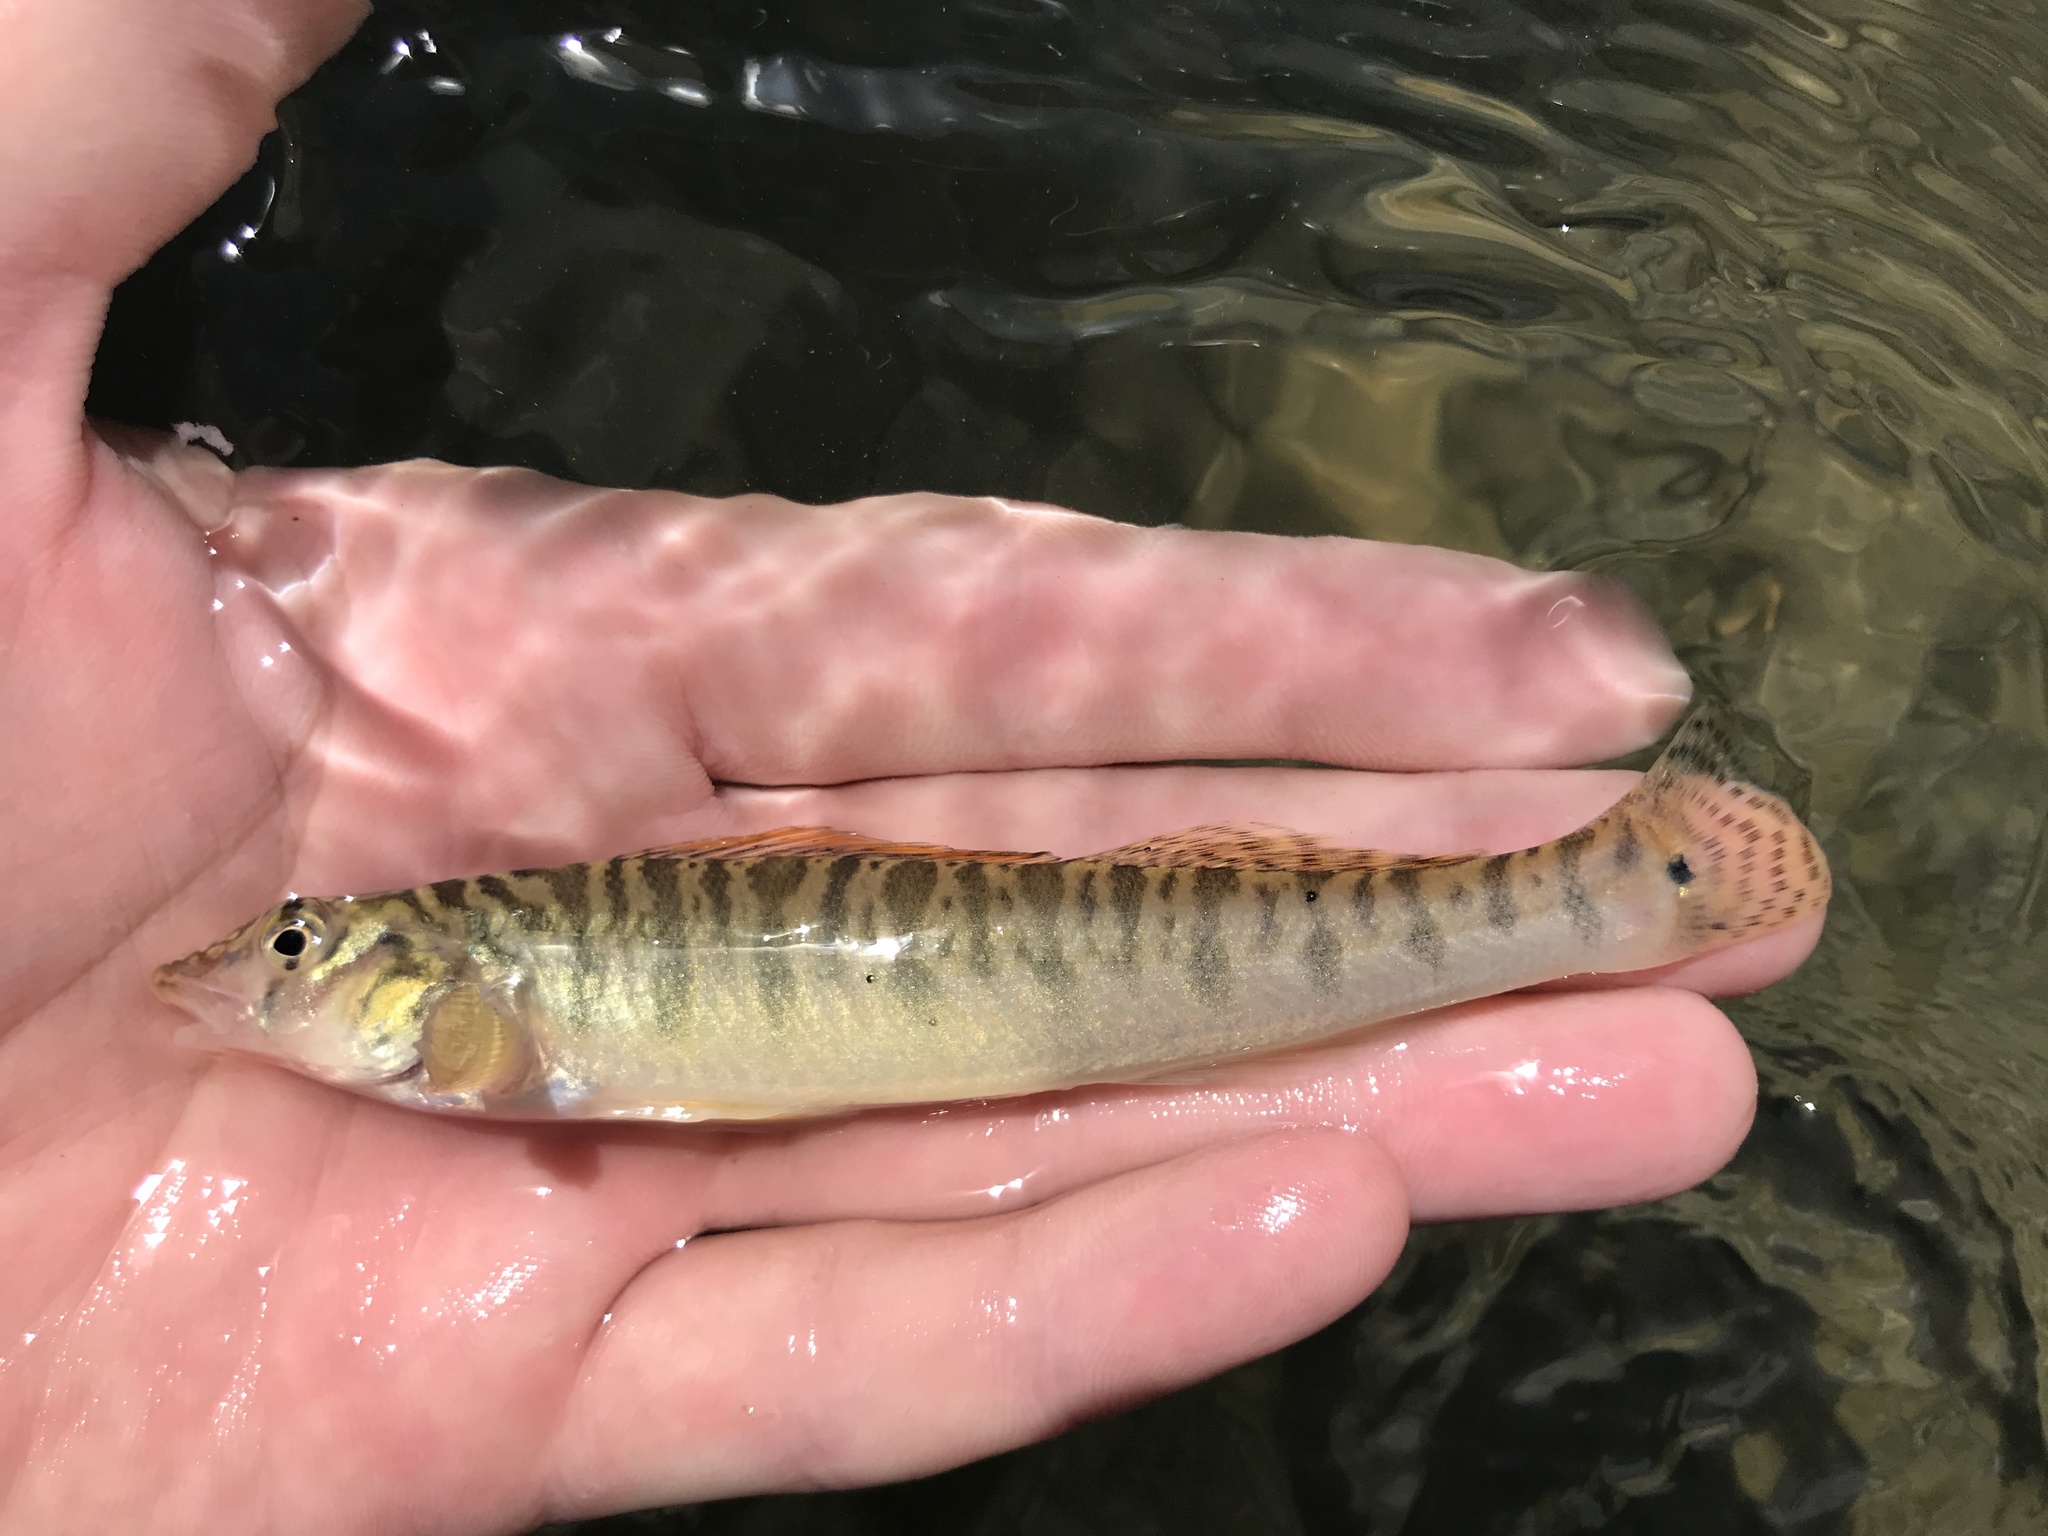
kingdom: Animalia
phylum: Chordata
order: Perciformes
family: Percidae
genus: Percina
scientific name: Percina carbonaria
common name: Texas logperch
